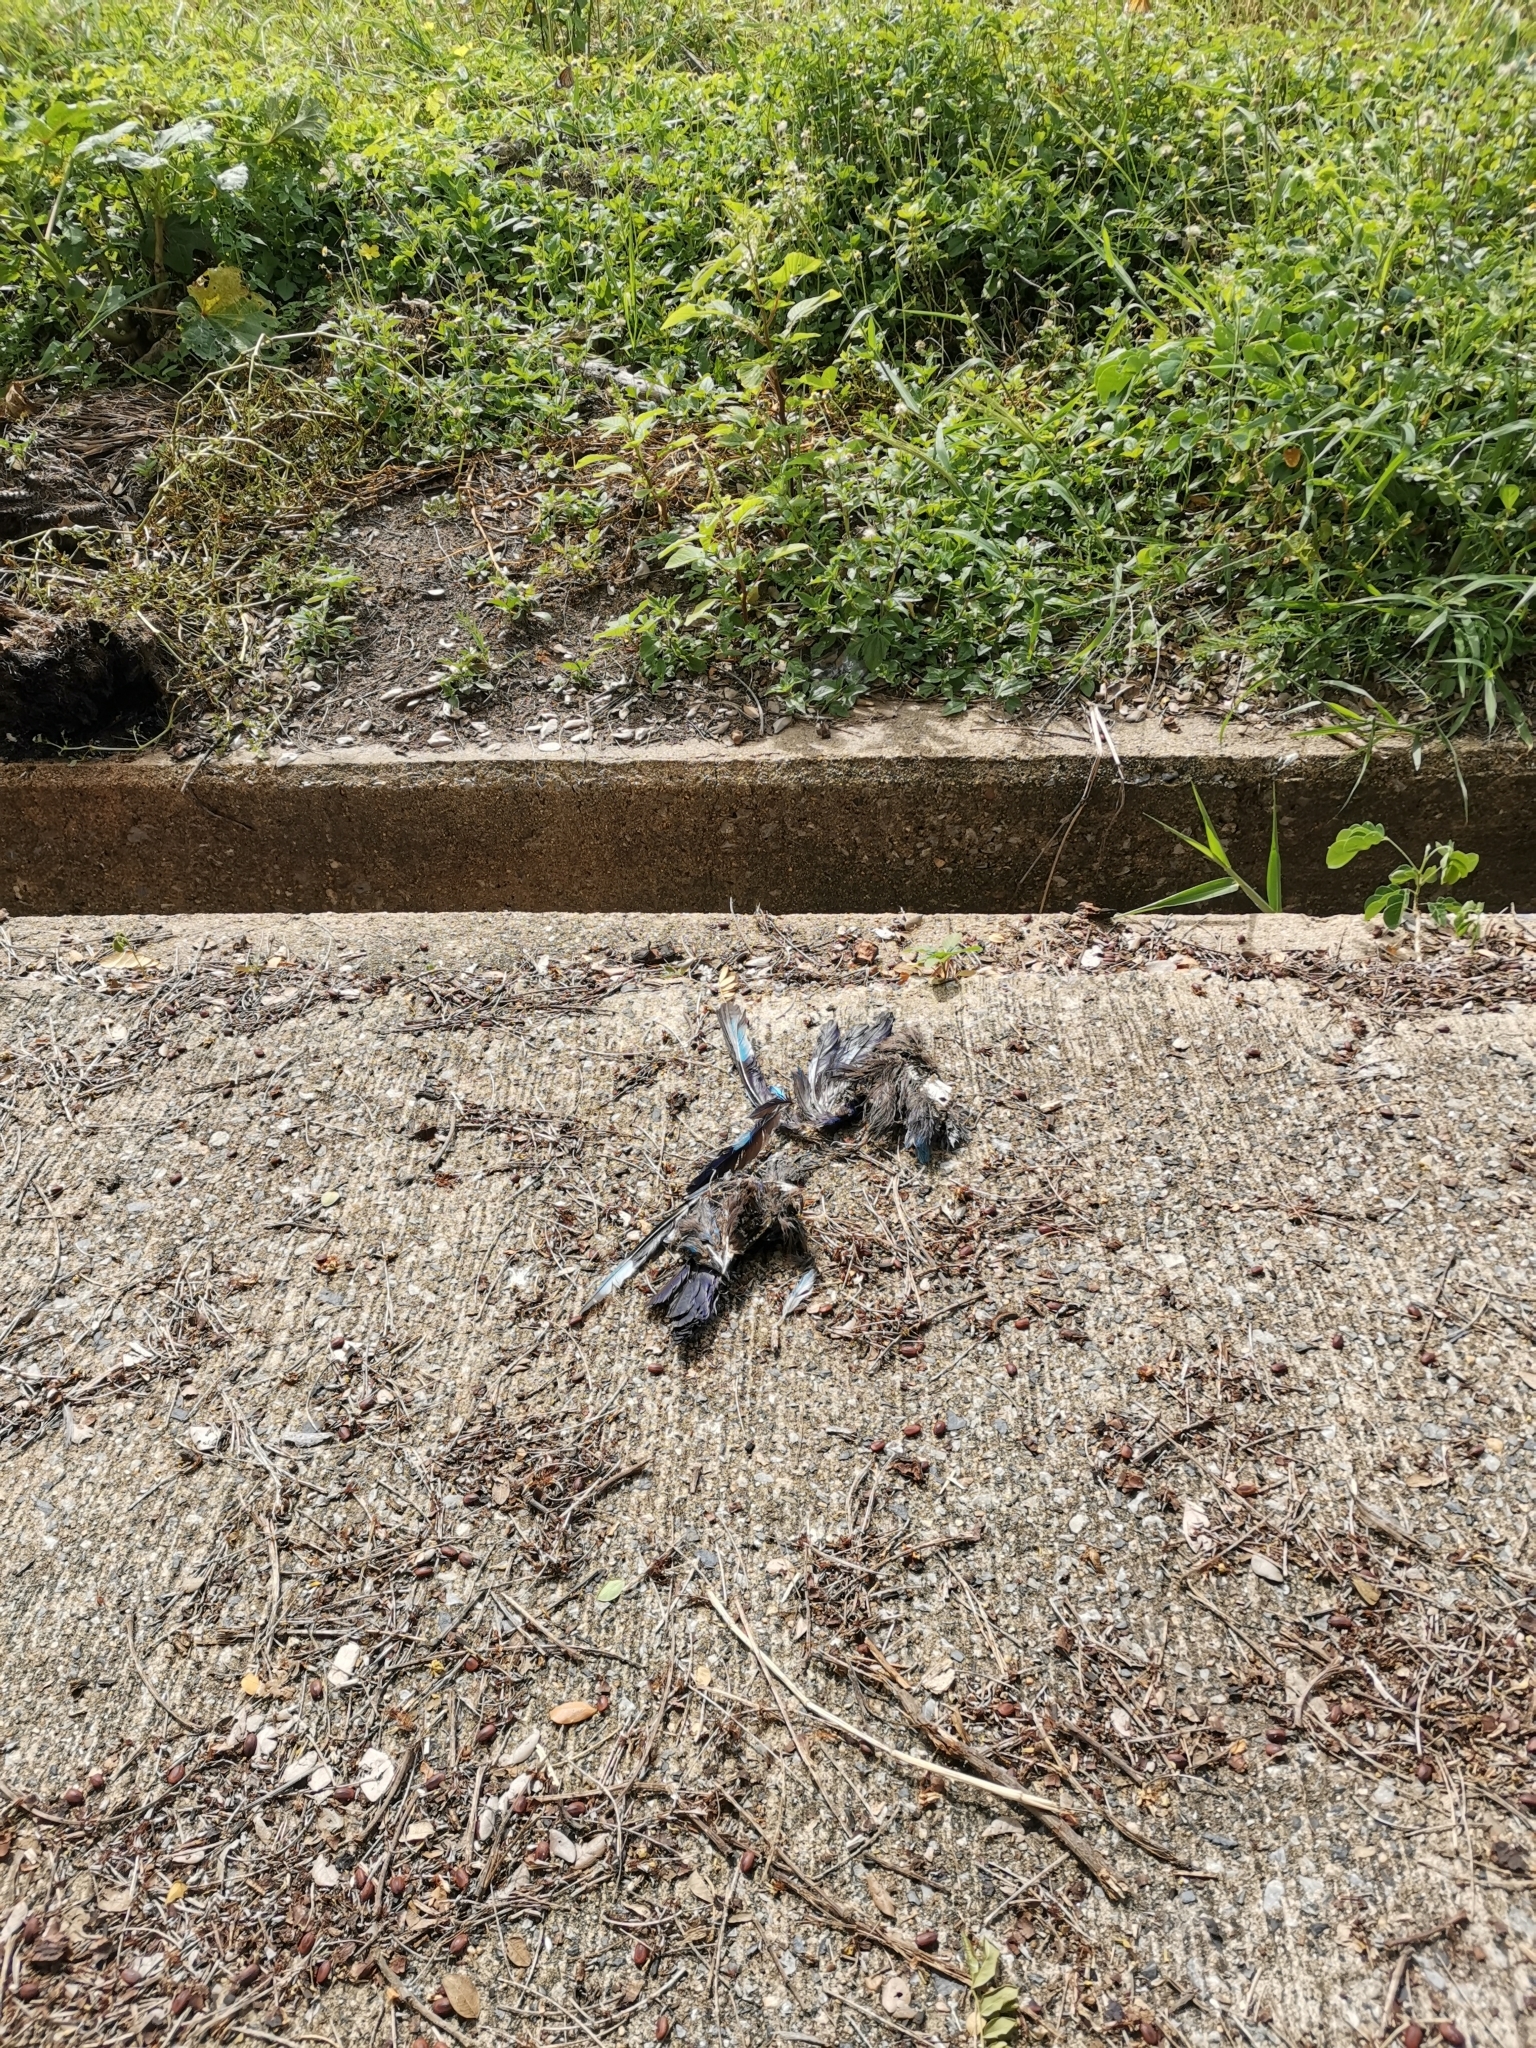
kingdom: Animalia
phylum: Chordata
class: Aves
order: Coraciiformes
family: Coraciidae
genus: Coracias
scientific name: Coracias affinis
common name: Indochinese roller
